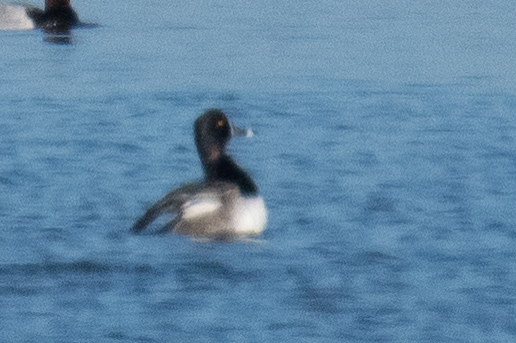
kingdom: Animalia
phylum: Chordata
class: Aves
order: Anseriformes
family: Anatidae
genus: Aythya
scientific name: Aythya collaris
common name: Ring-necked duck
